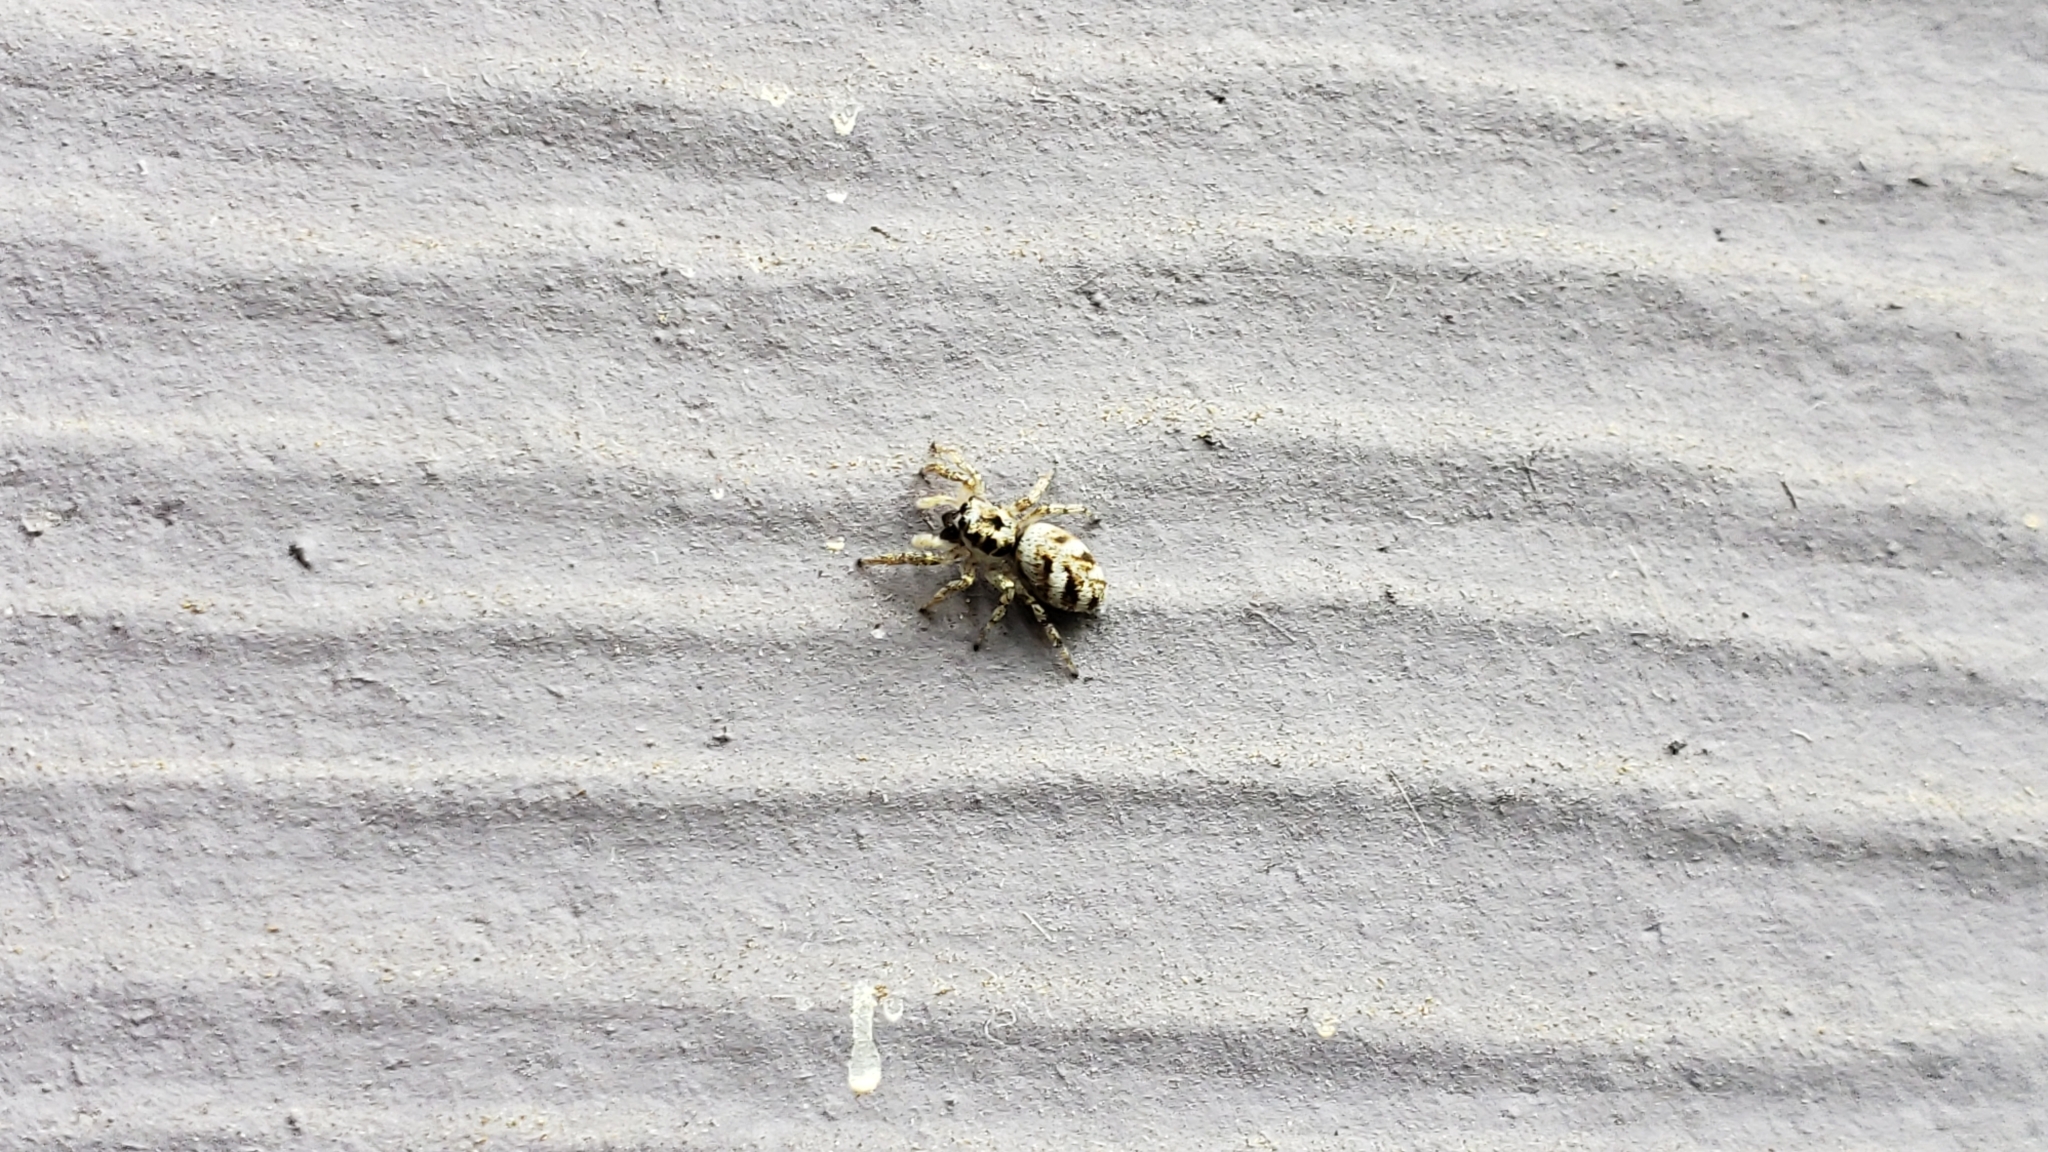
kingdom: Animalia
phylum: Arthropoda
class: Arachnida
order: Araneae
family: Salticidae
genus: Salticus
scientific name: Salticus scenicus
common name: Zebra jumper
